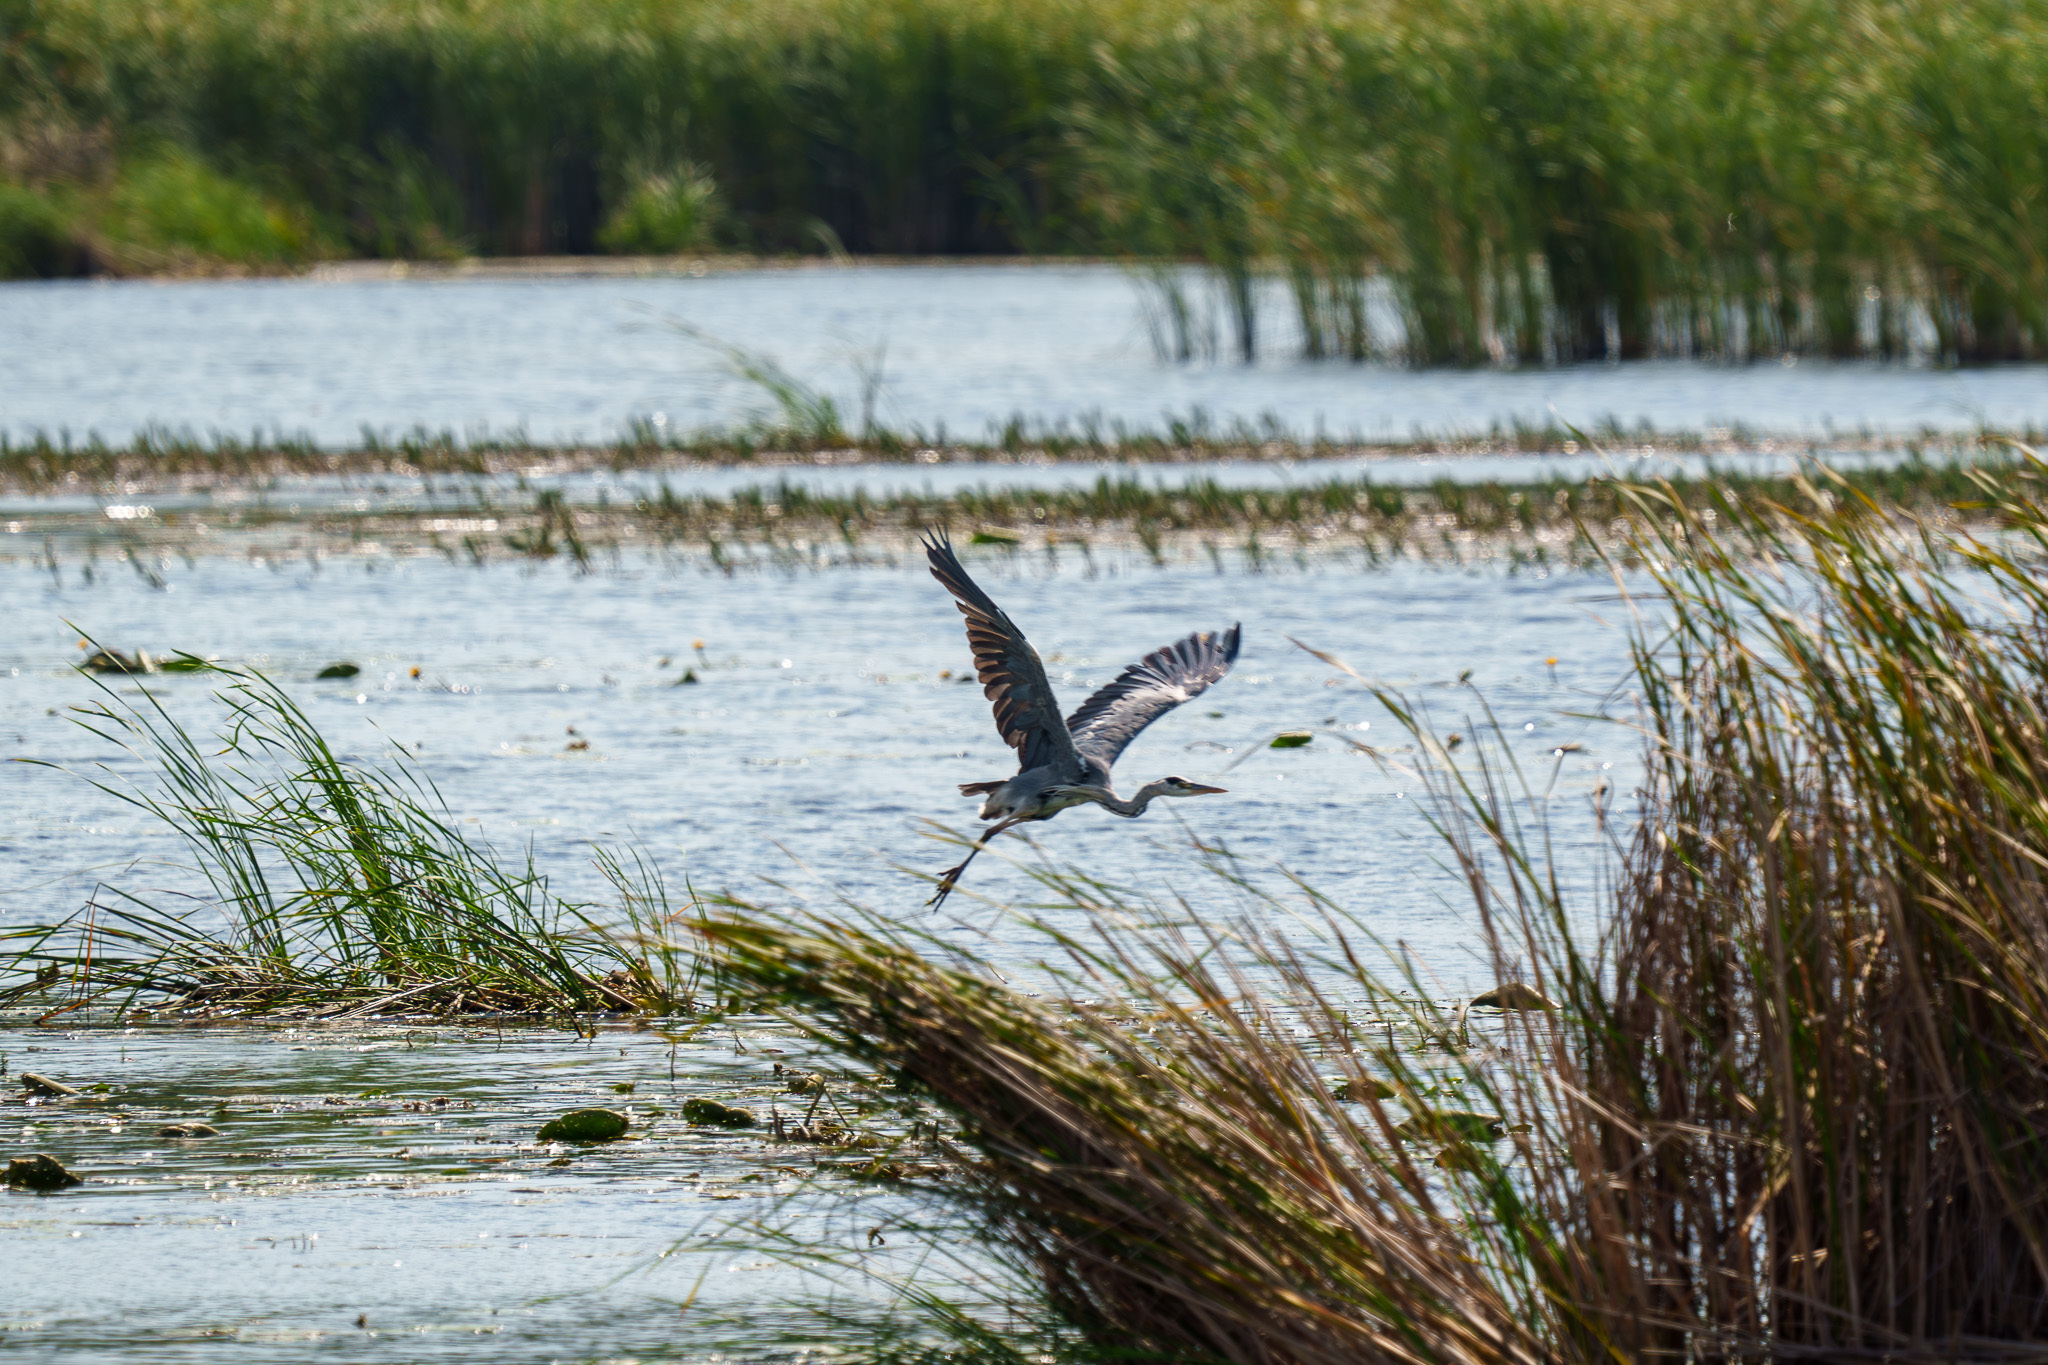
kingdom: Animalia
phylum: Chordata
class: Aves
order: Pelecaniformes
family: Ardeidae
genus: Ardea
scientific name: Ardea cinerea
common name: Grey heron
